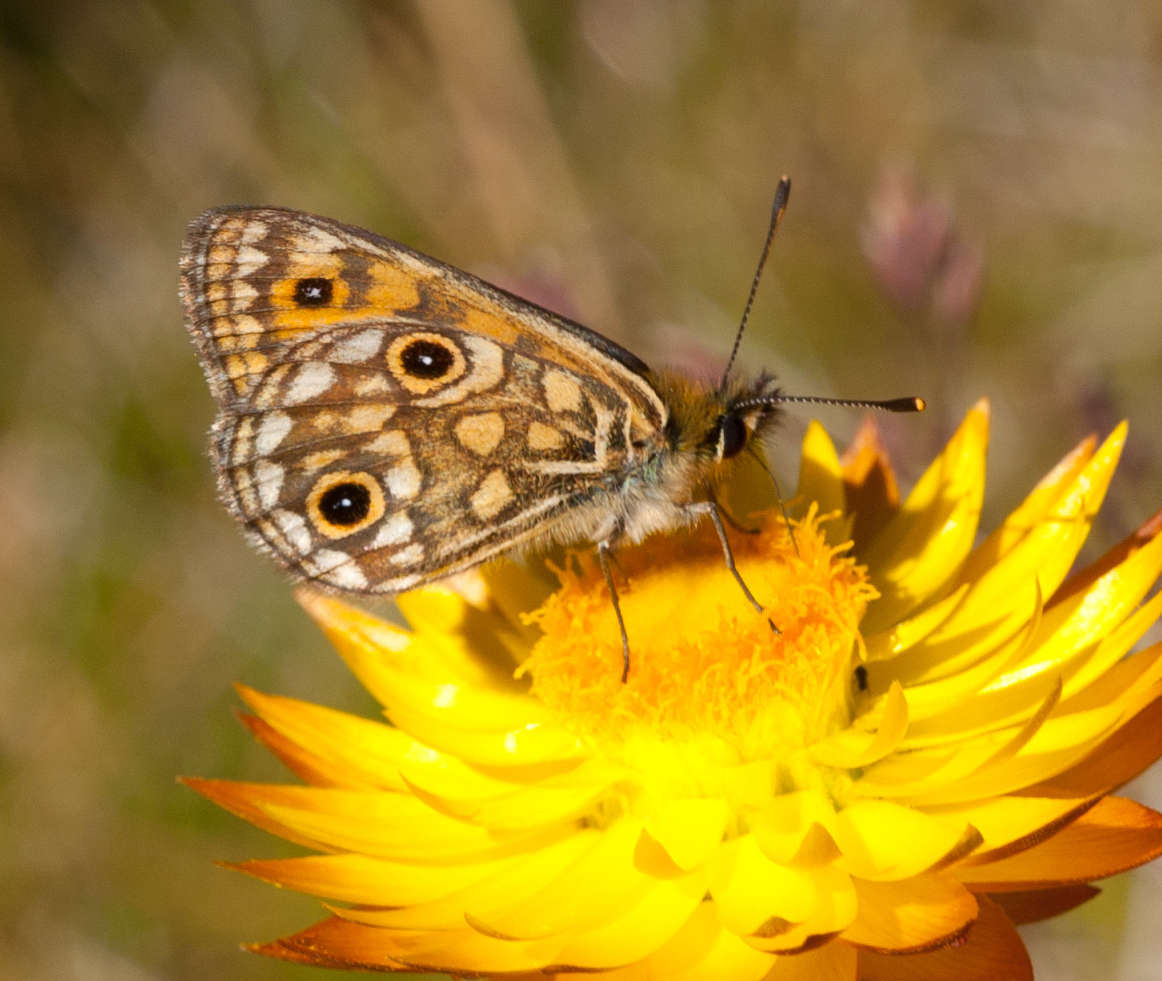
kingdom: Animalia
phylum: Arthropoda
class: Insecta
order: Lepidoptera
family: Nymphalidae
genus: Oreixenica
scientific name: Oreixenica orichora
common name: Orichora brown
